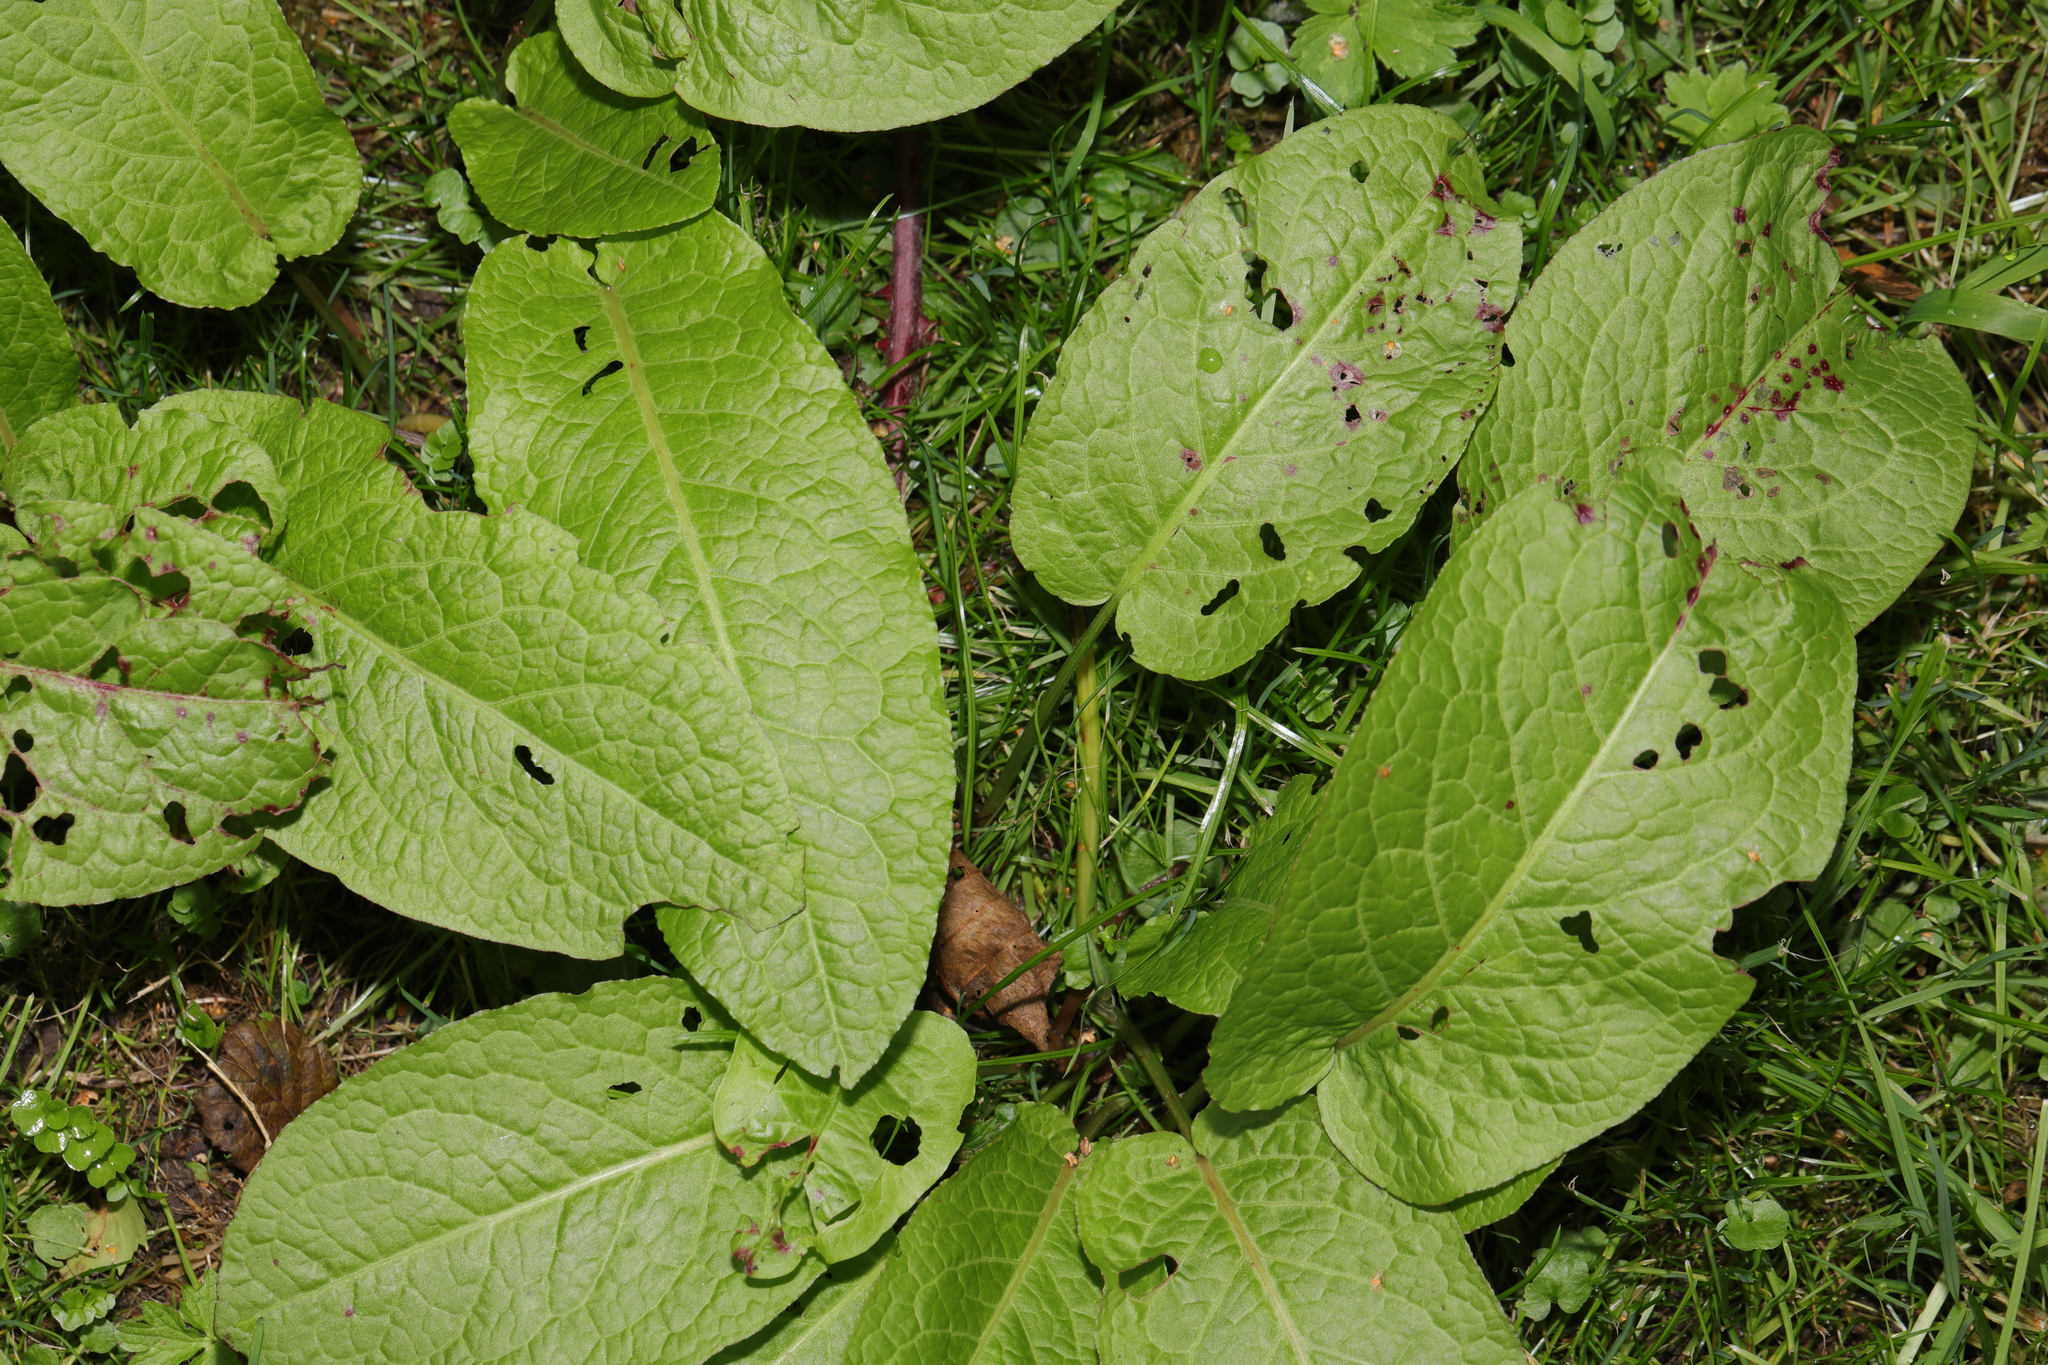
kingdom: Plantae
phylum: Tracheophyta
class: Magnoliopsida
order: Caryophyllales
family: Polygonaceae
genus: Rumex
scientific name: Rumex obtusifolius
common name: Bitter dock
